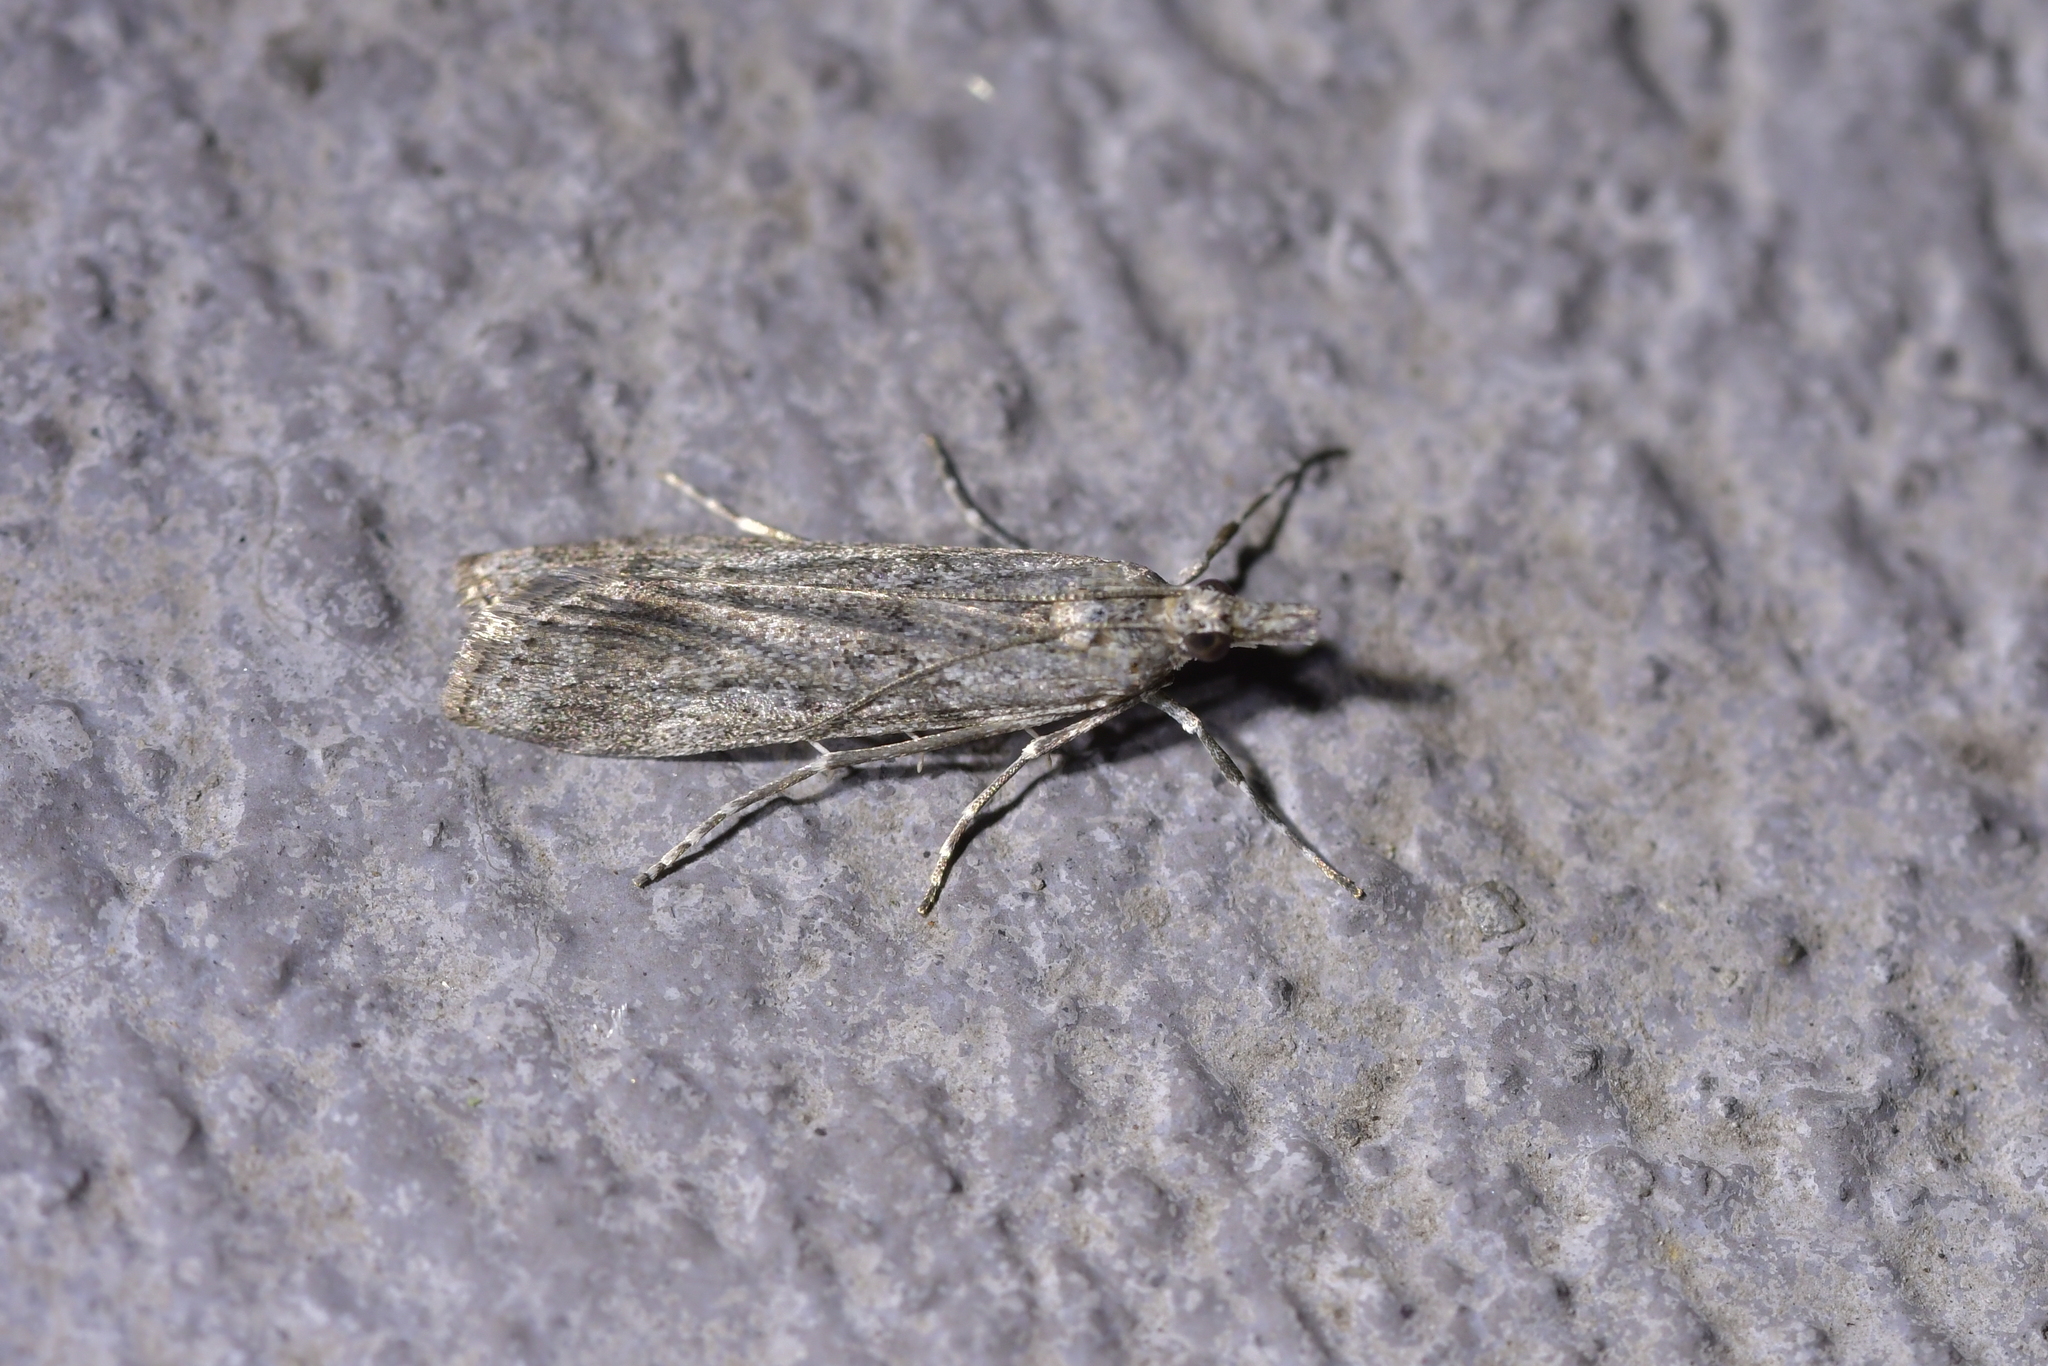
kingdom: Animalia
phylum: Arthropoda
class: Insecta
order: Lepidoptera
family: Crambidae
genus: Eudonia
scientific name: Eudonia leptalea
